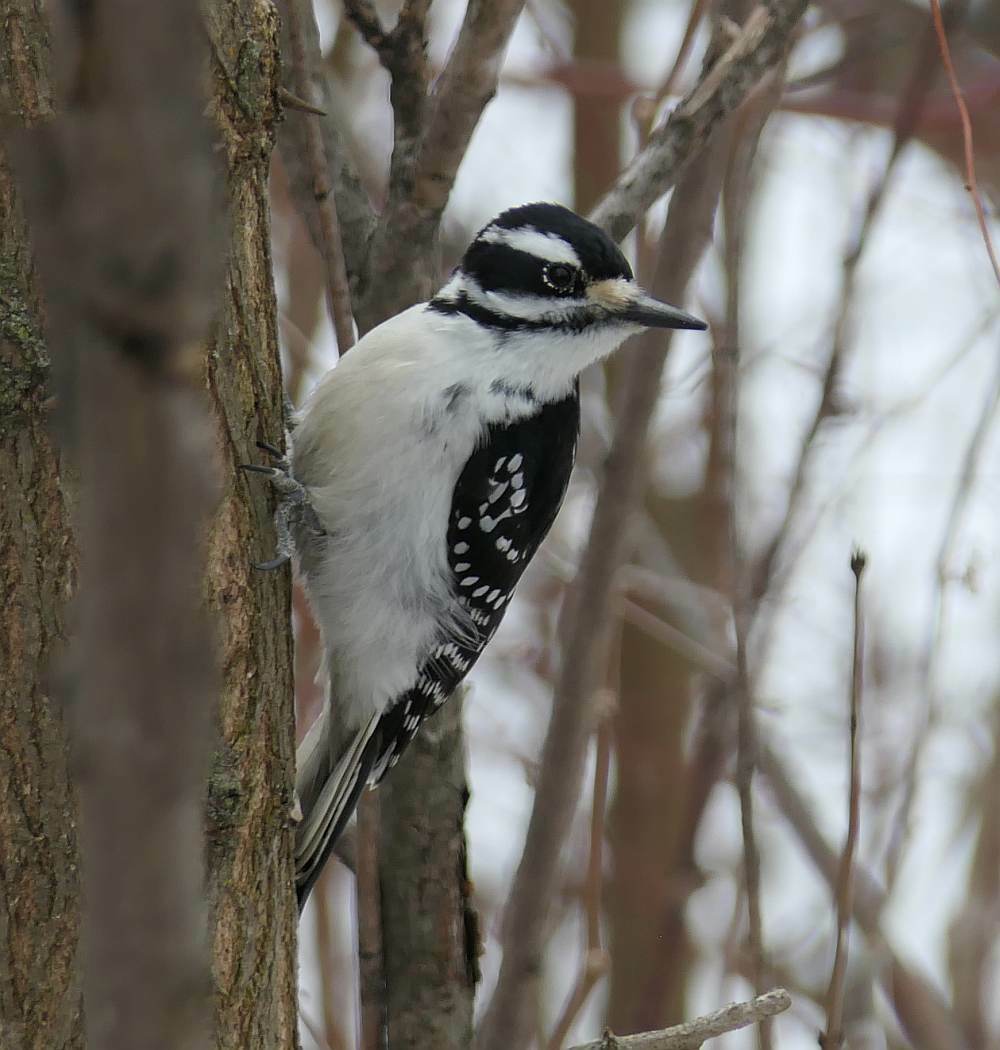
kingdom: Animalia
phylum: Chordata
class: Aves
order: Piciformes
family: Picidae
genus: Leuconotopicus
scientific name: Leuconotopicus villosus
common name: Hairy woodpecker
